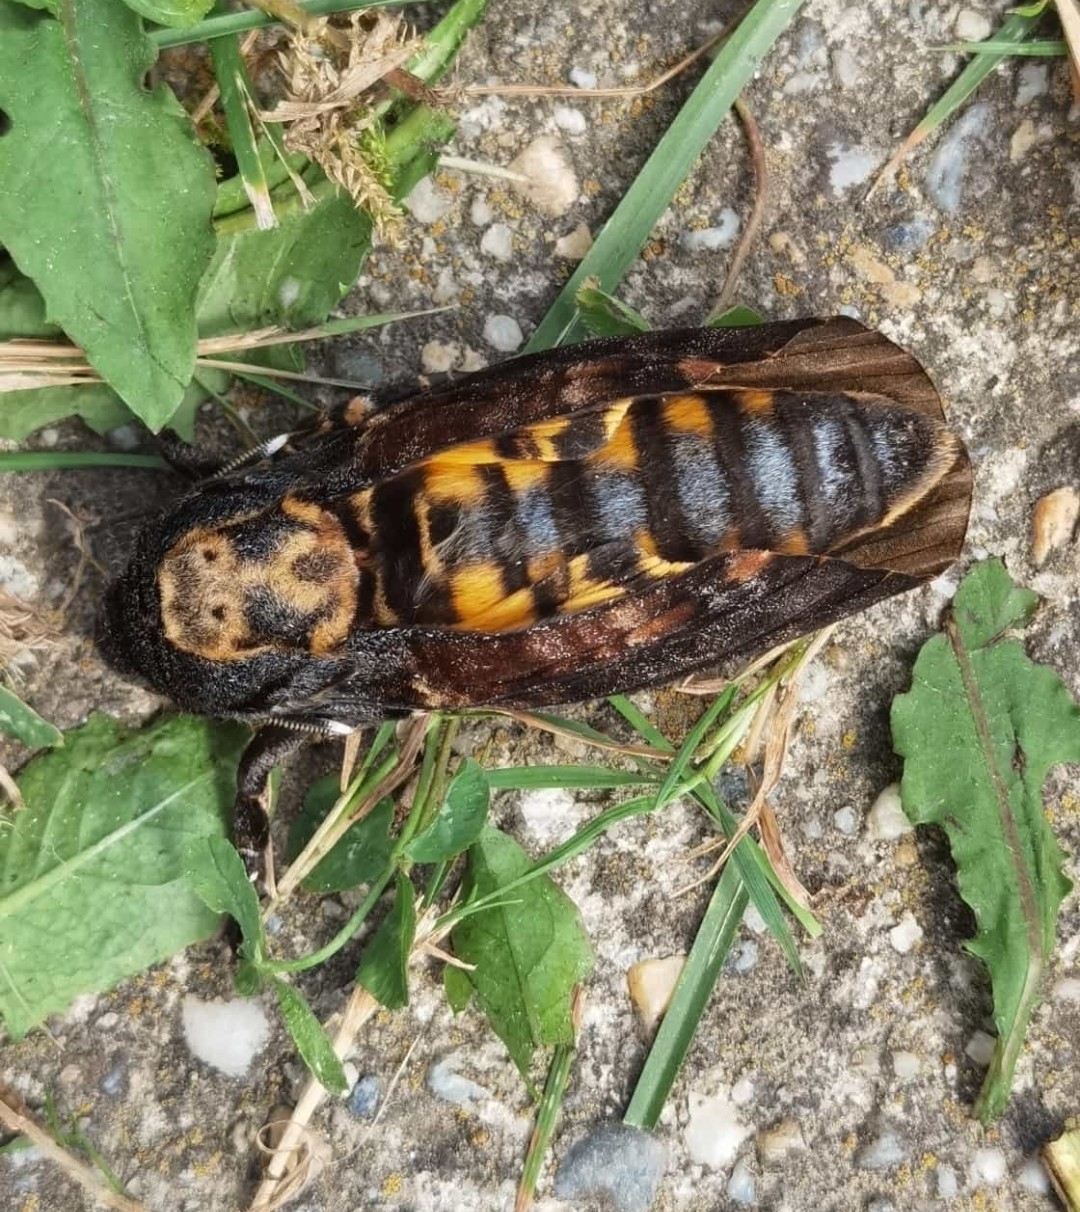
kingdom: Animalia
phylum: Arthropoda
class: Insecta
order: Lepidoptera
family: Sphingidae
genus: Acherontia
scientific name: Acherontia atropos
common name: Death's-head hawk moth
